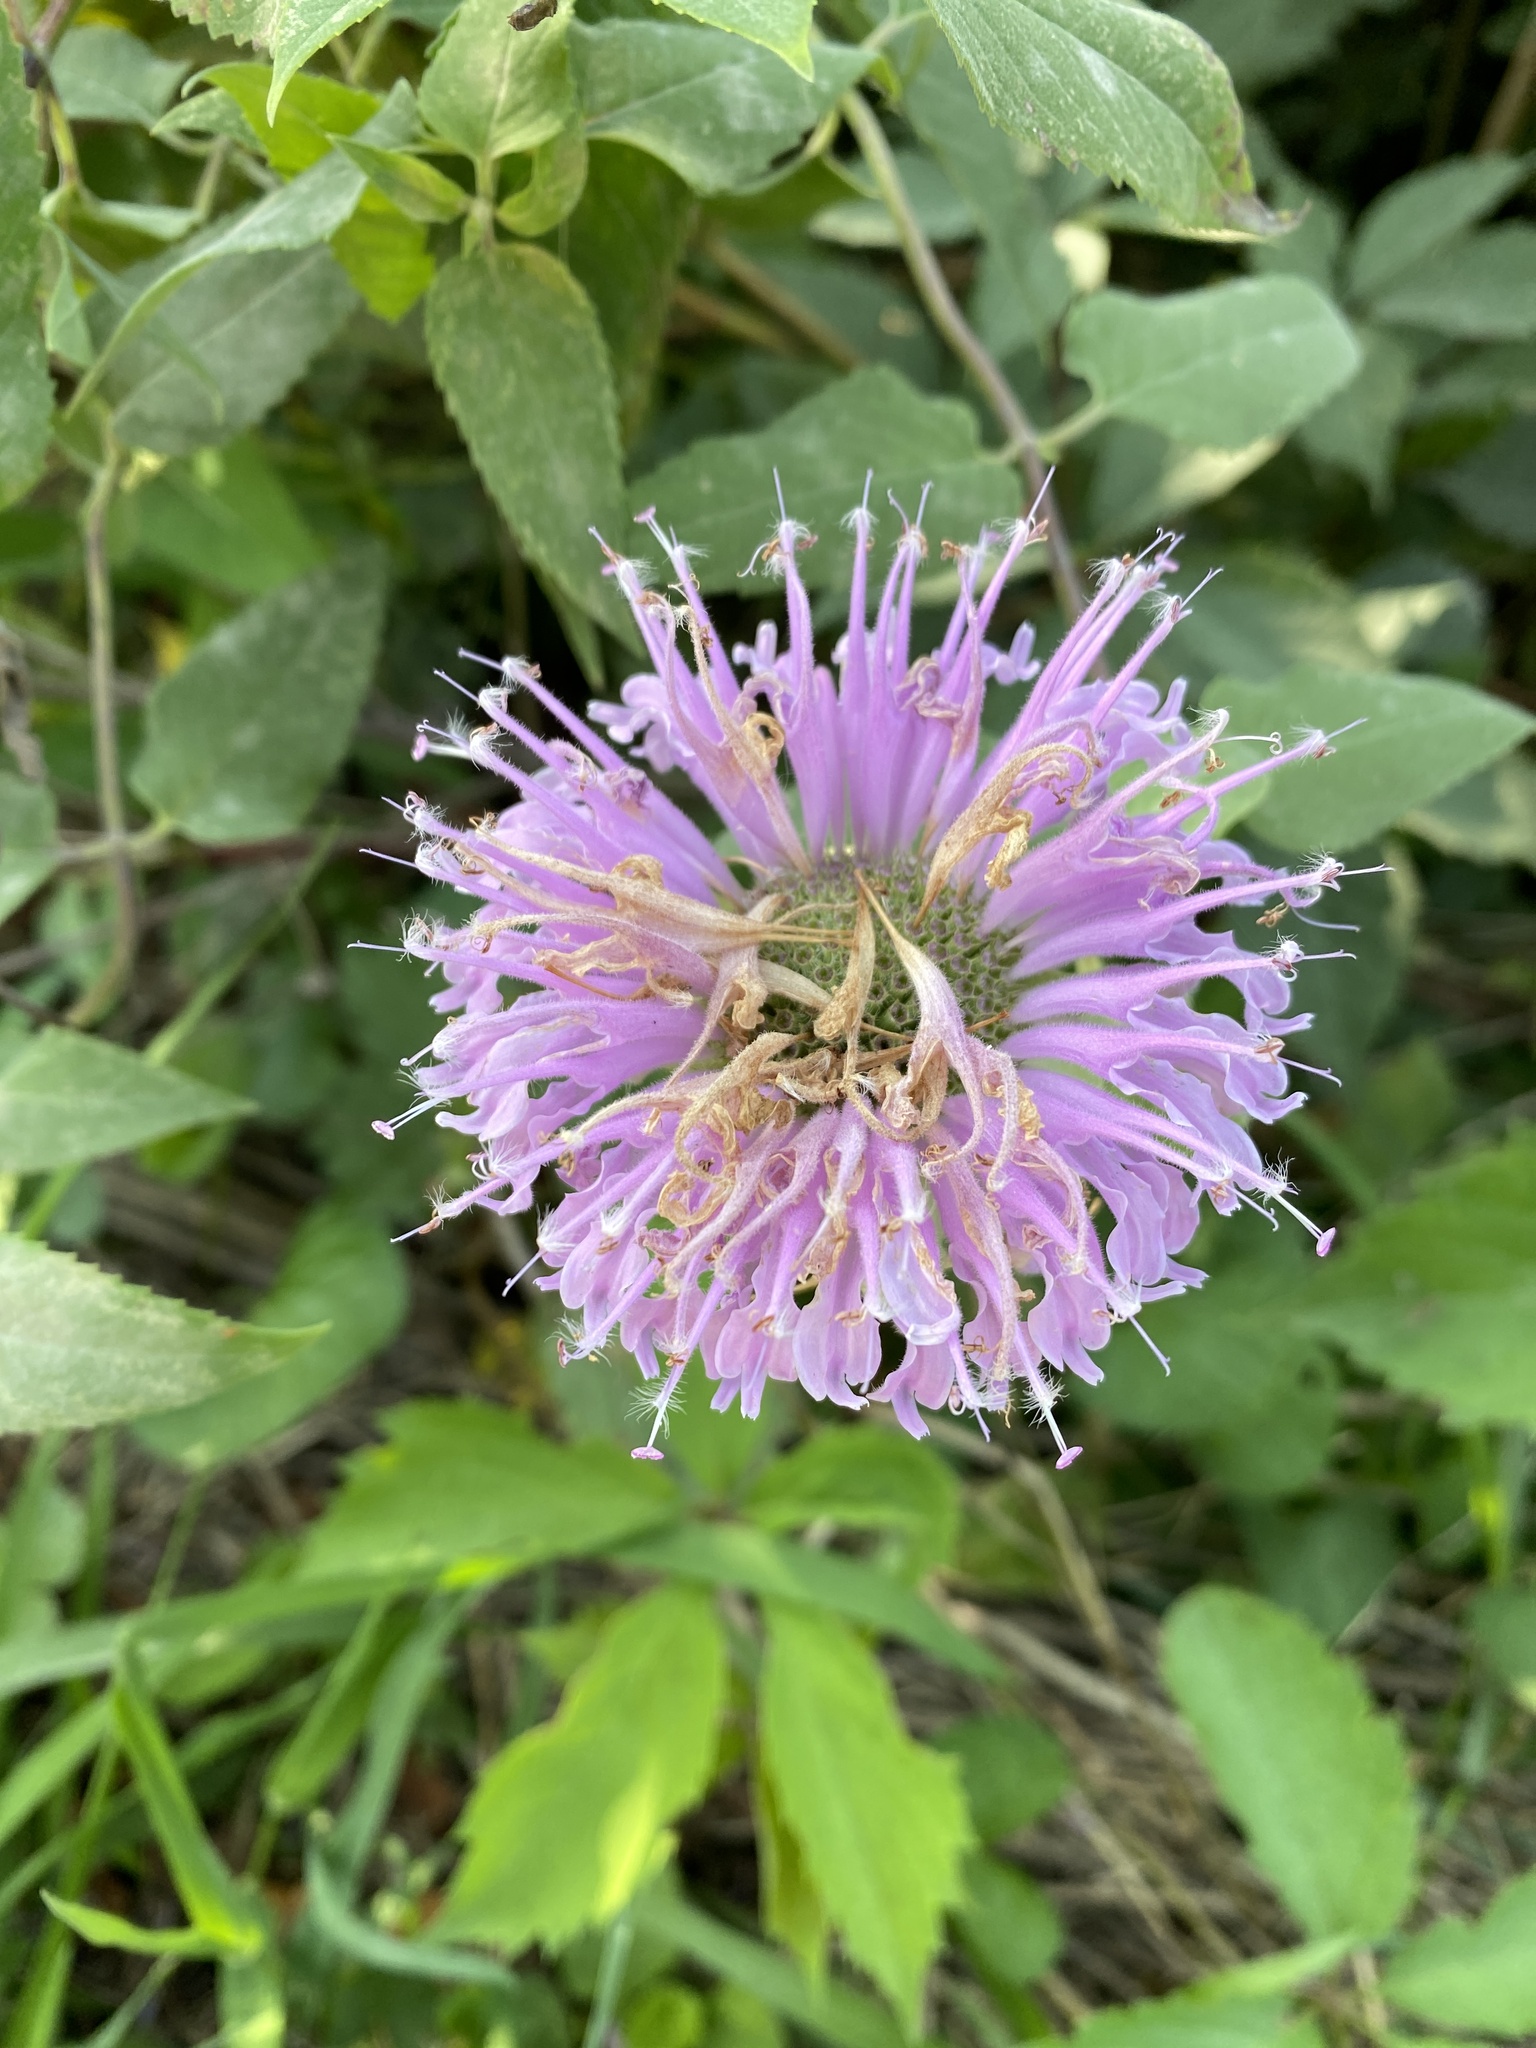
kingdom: Plantae
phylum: Tracheophyta
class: Magnoliopsida
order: Lamiales
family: Lamiaceae
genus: Monarda
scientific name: Monarda fistulosa
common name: Purple beebalm
